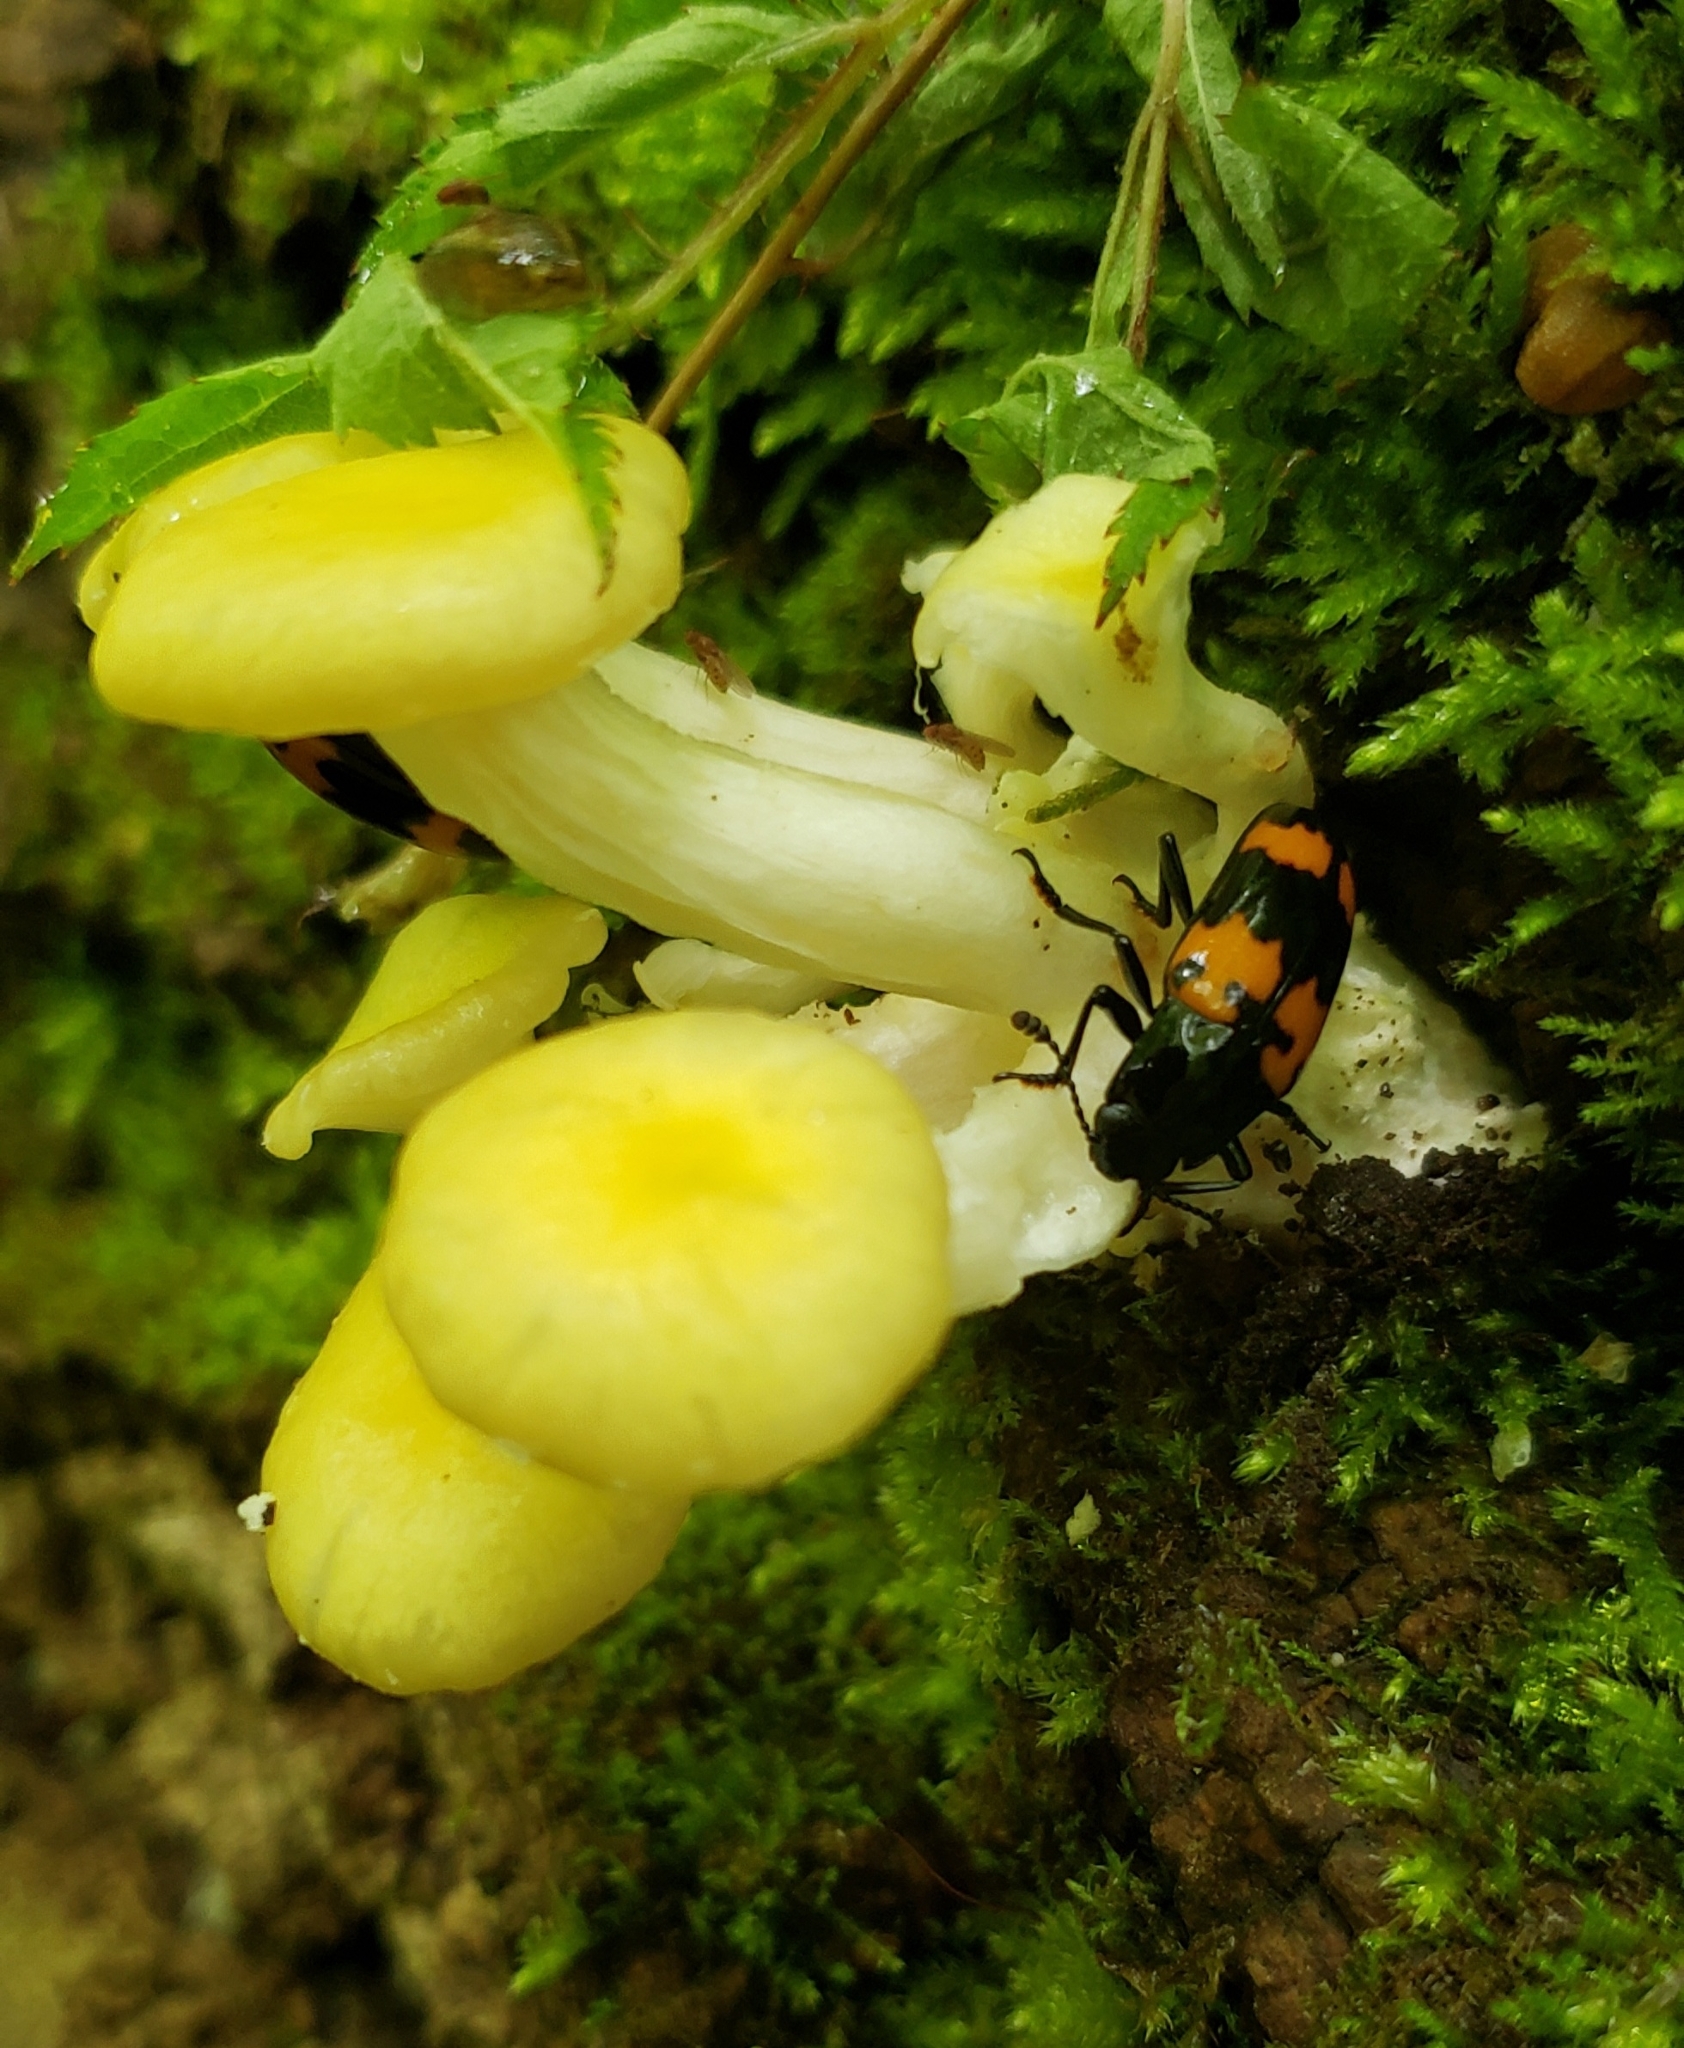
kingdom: Fungi
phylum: Basidiomycota
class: Agaricomycetes
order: Agaricales
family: Pleurotaceae
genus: Pleurotus
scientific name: Pleurotus citrinopileatus
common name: Golden oyster mushroom
